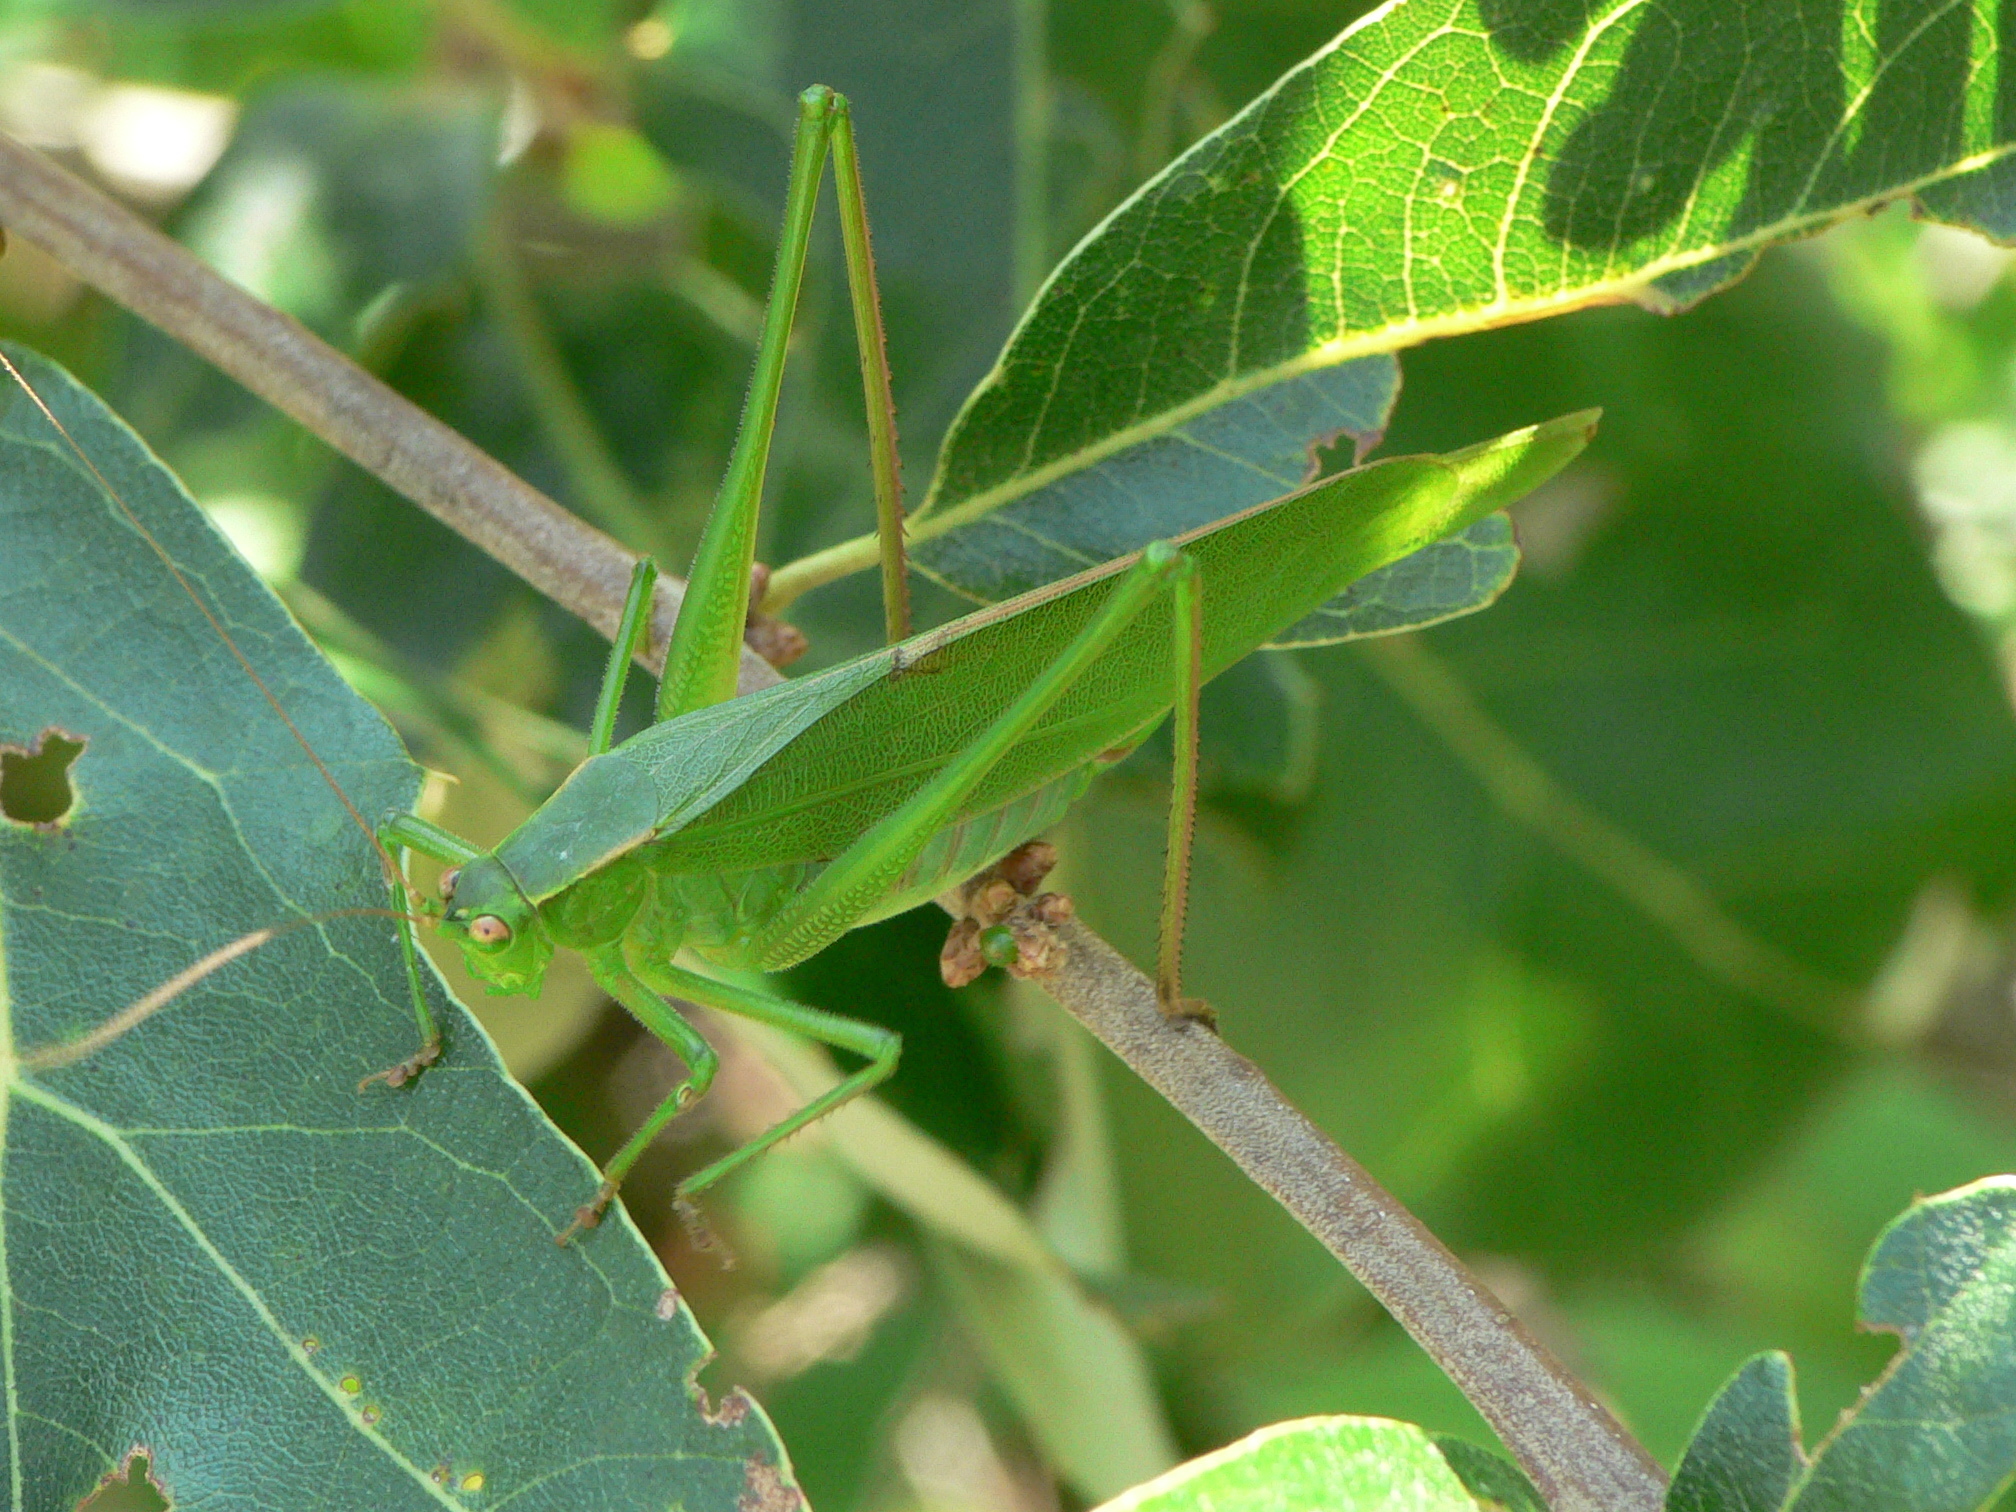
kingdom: Animalia
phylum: Arthropoda
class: Insecta
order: Orthoptera
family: Tettigoniidae
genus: Scudderia
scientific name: Scudderia curvicauda
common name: Curve-tailed bush katydid
